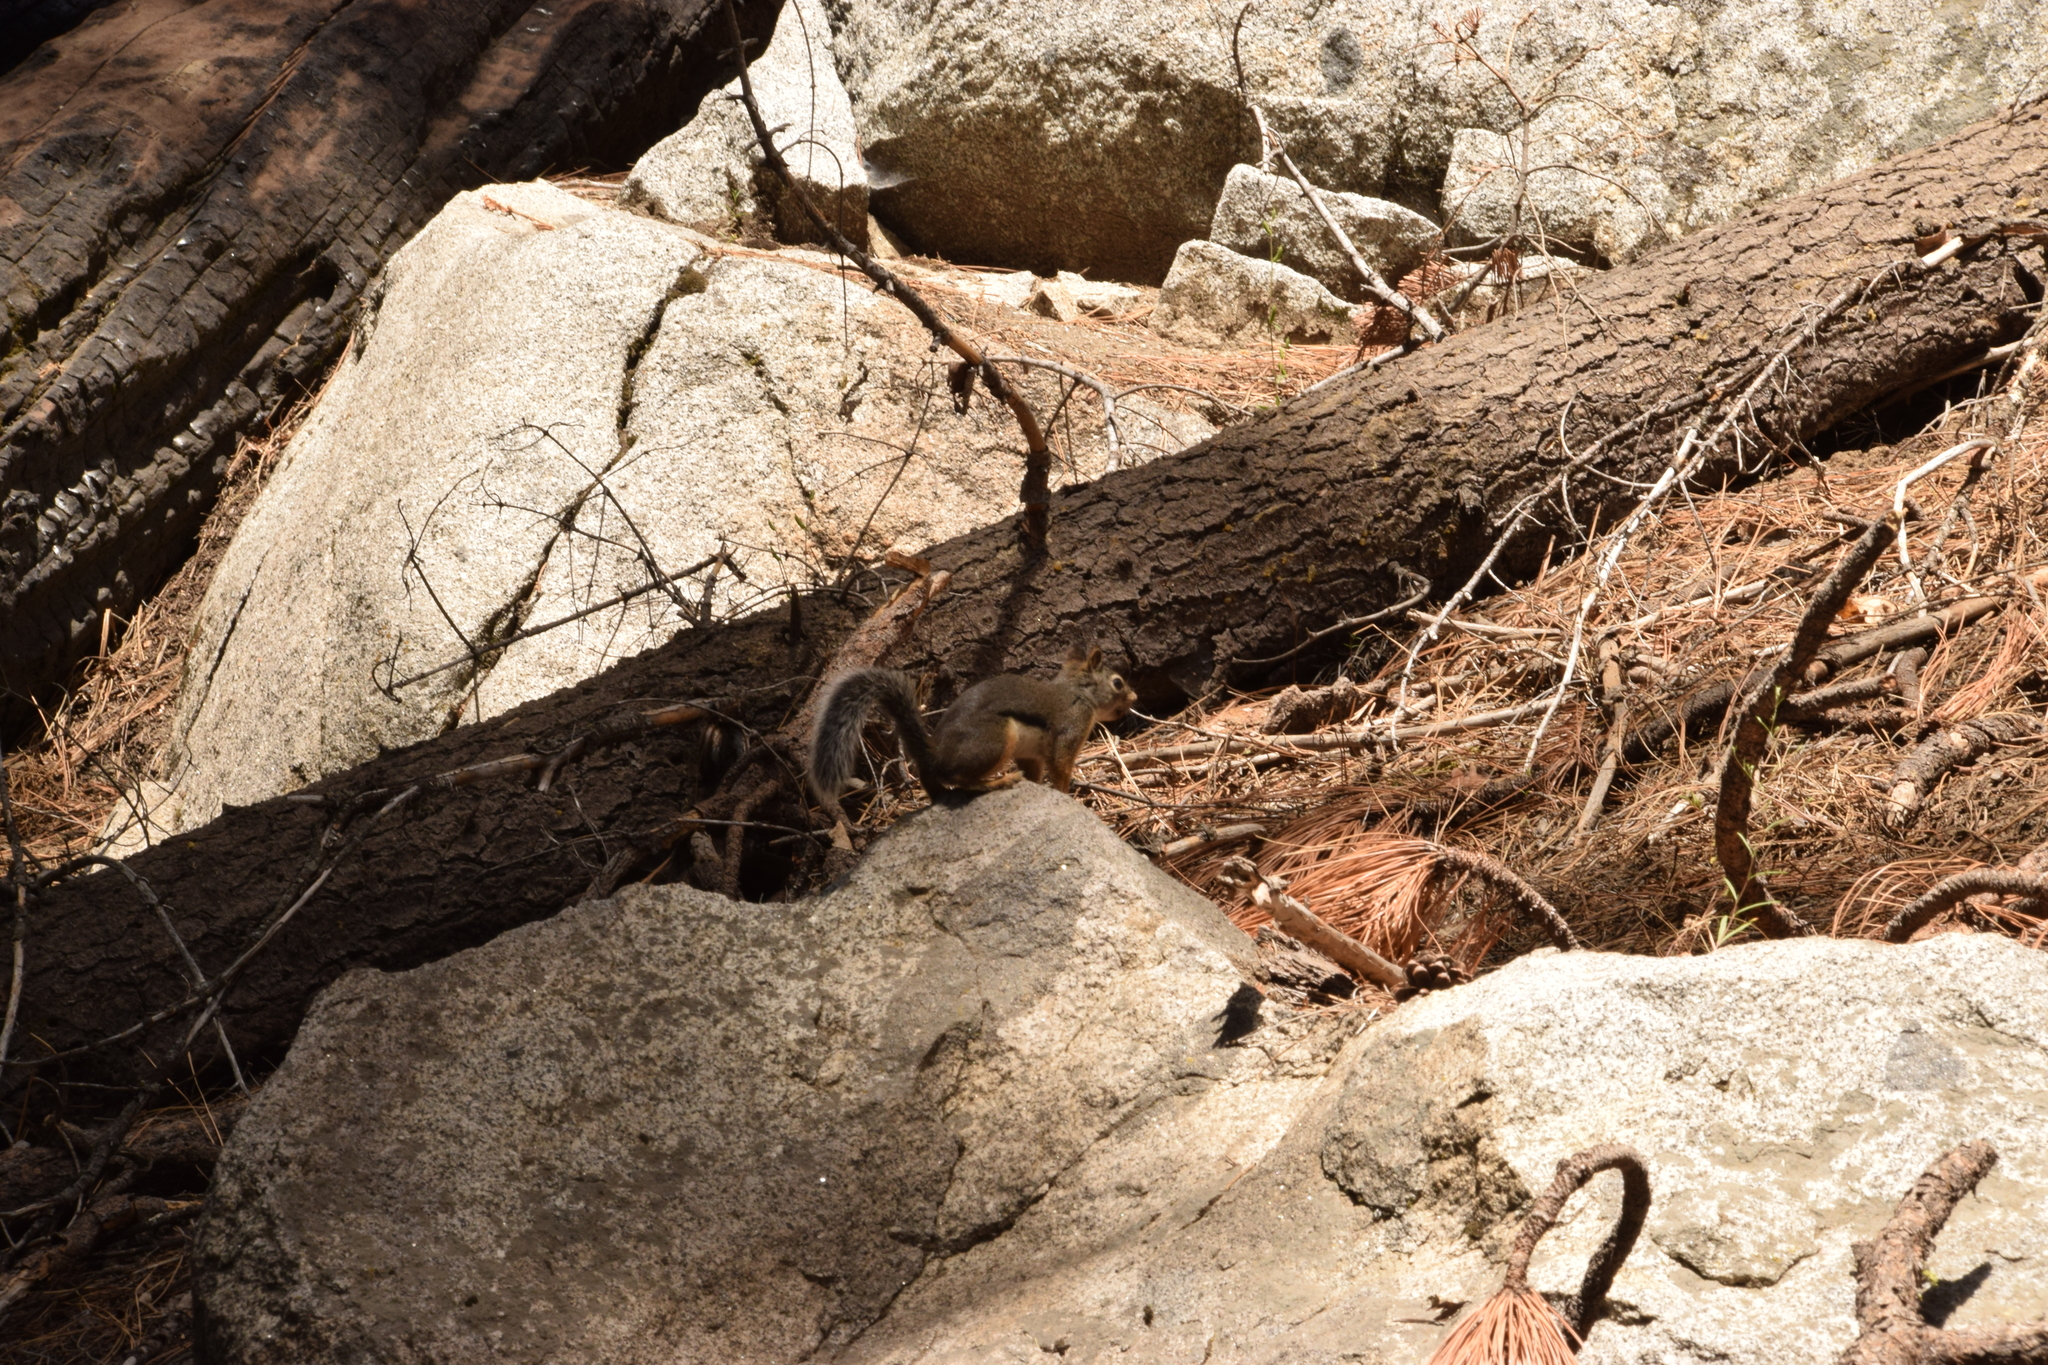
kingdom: Animalia
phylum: Chordata
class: Mammalia
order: Rodentia
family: Sciuridae
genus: Tamiasciurus
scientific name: Tamiasciurus douglasii
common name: Douglas's squirrel
